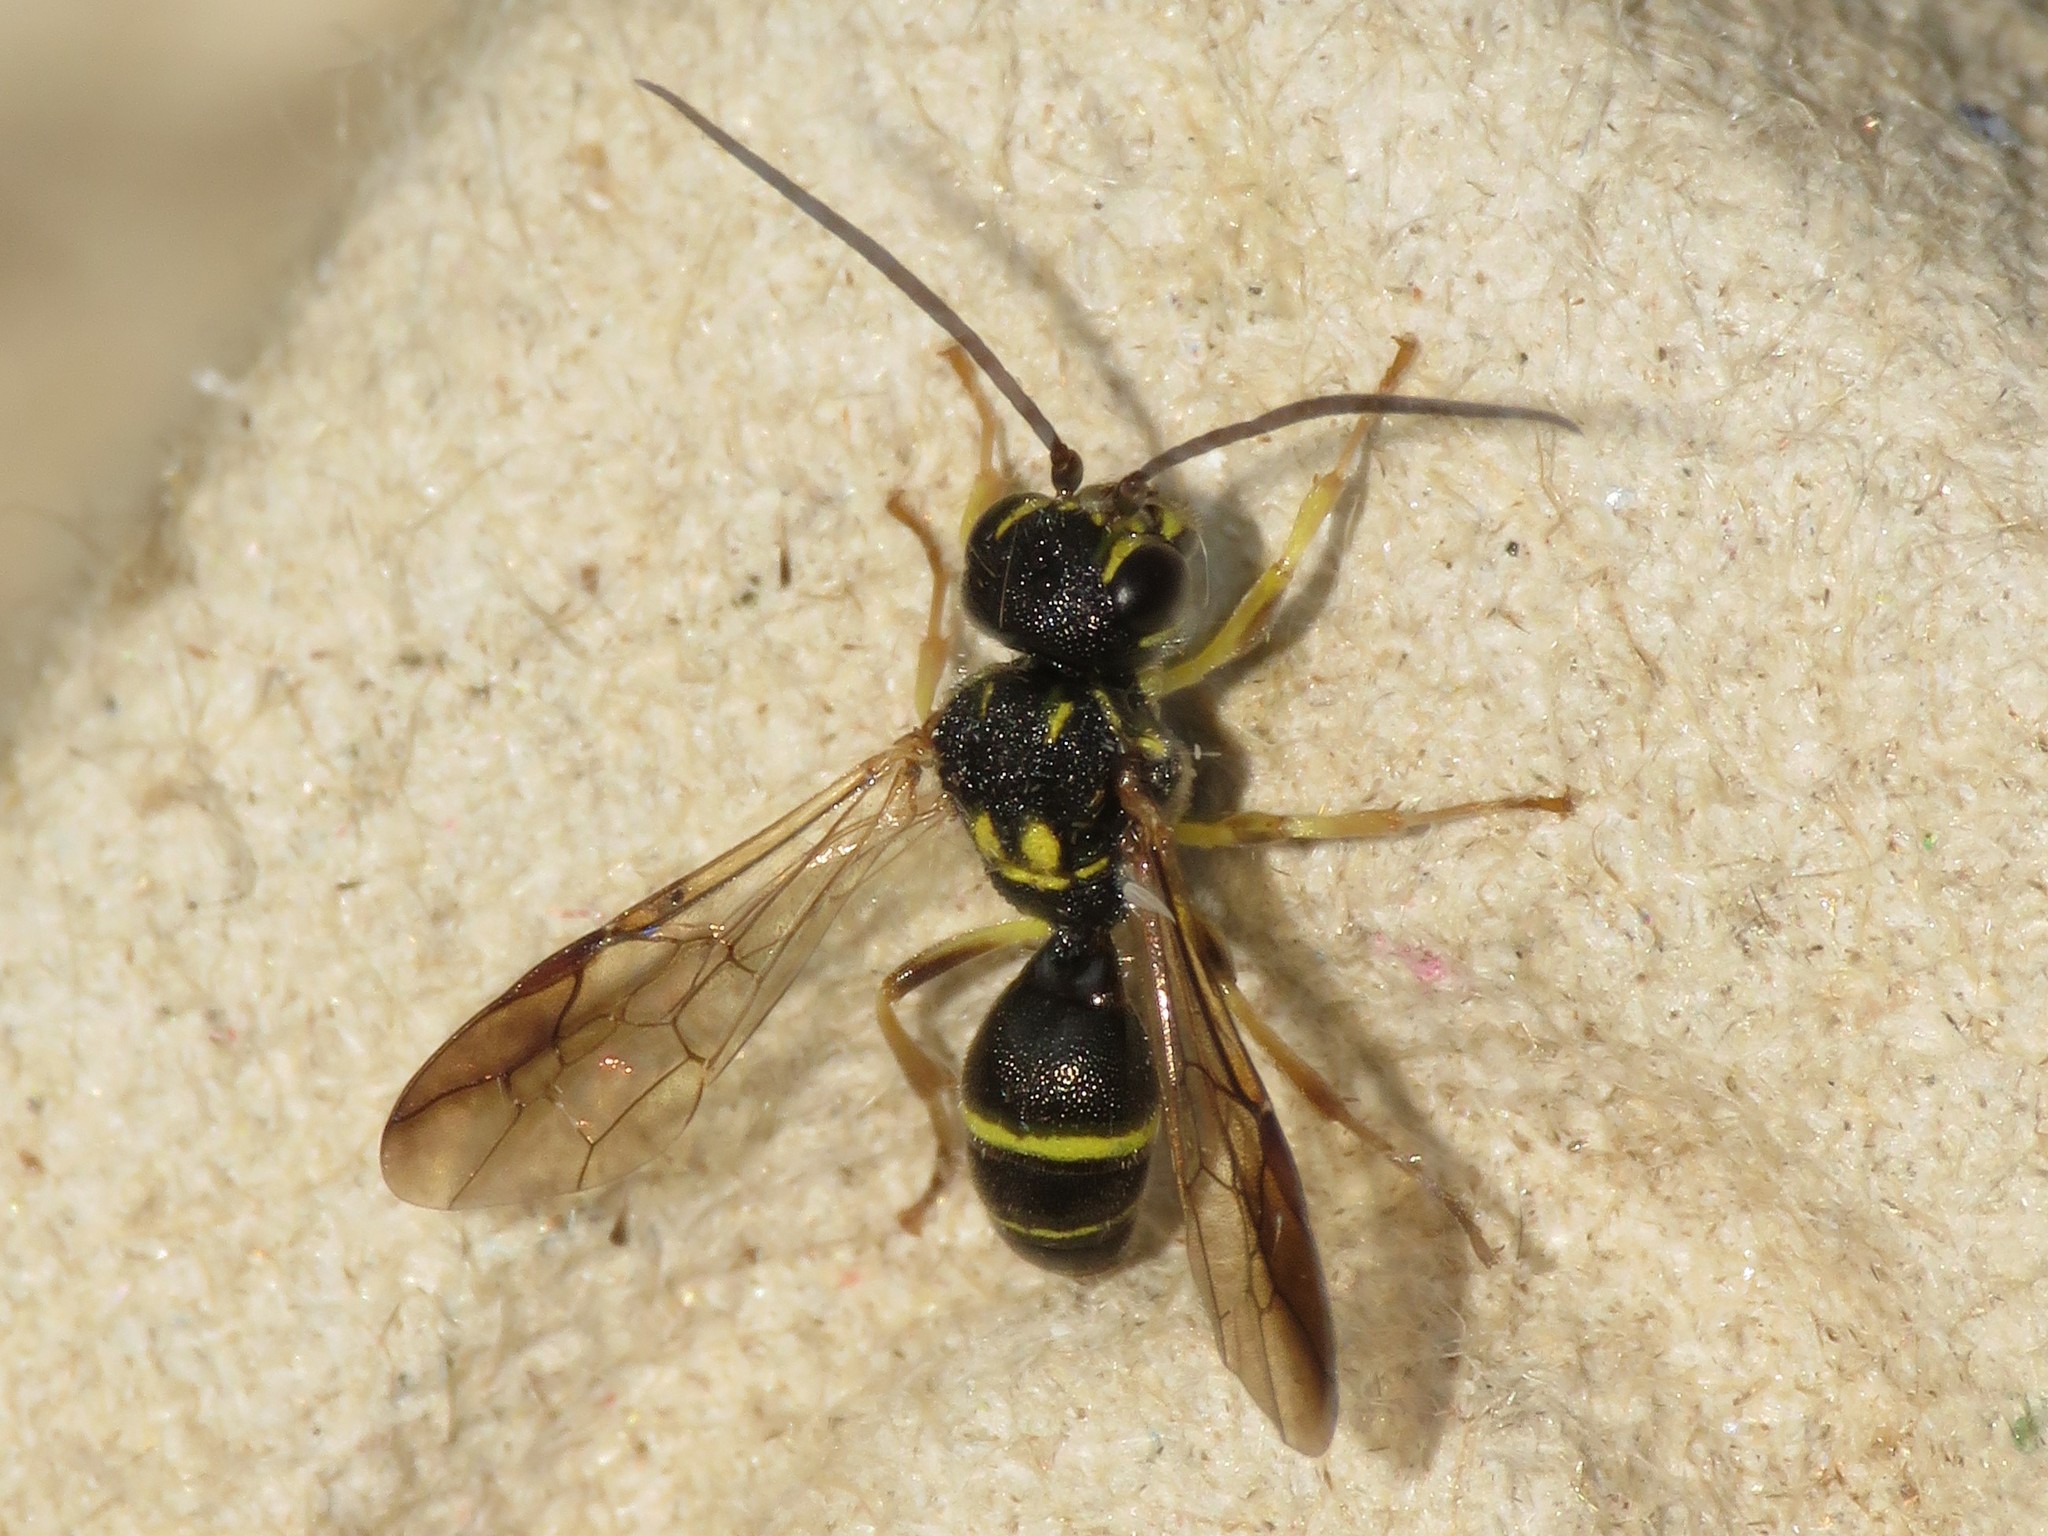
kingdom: Animalia
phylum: Arthropoda
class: Insecta
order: Hymenoptera
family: Trigonalidae
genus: Taeniogonalos
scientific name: Taeniogonalos gundlachii
